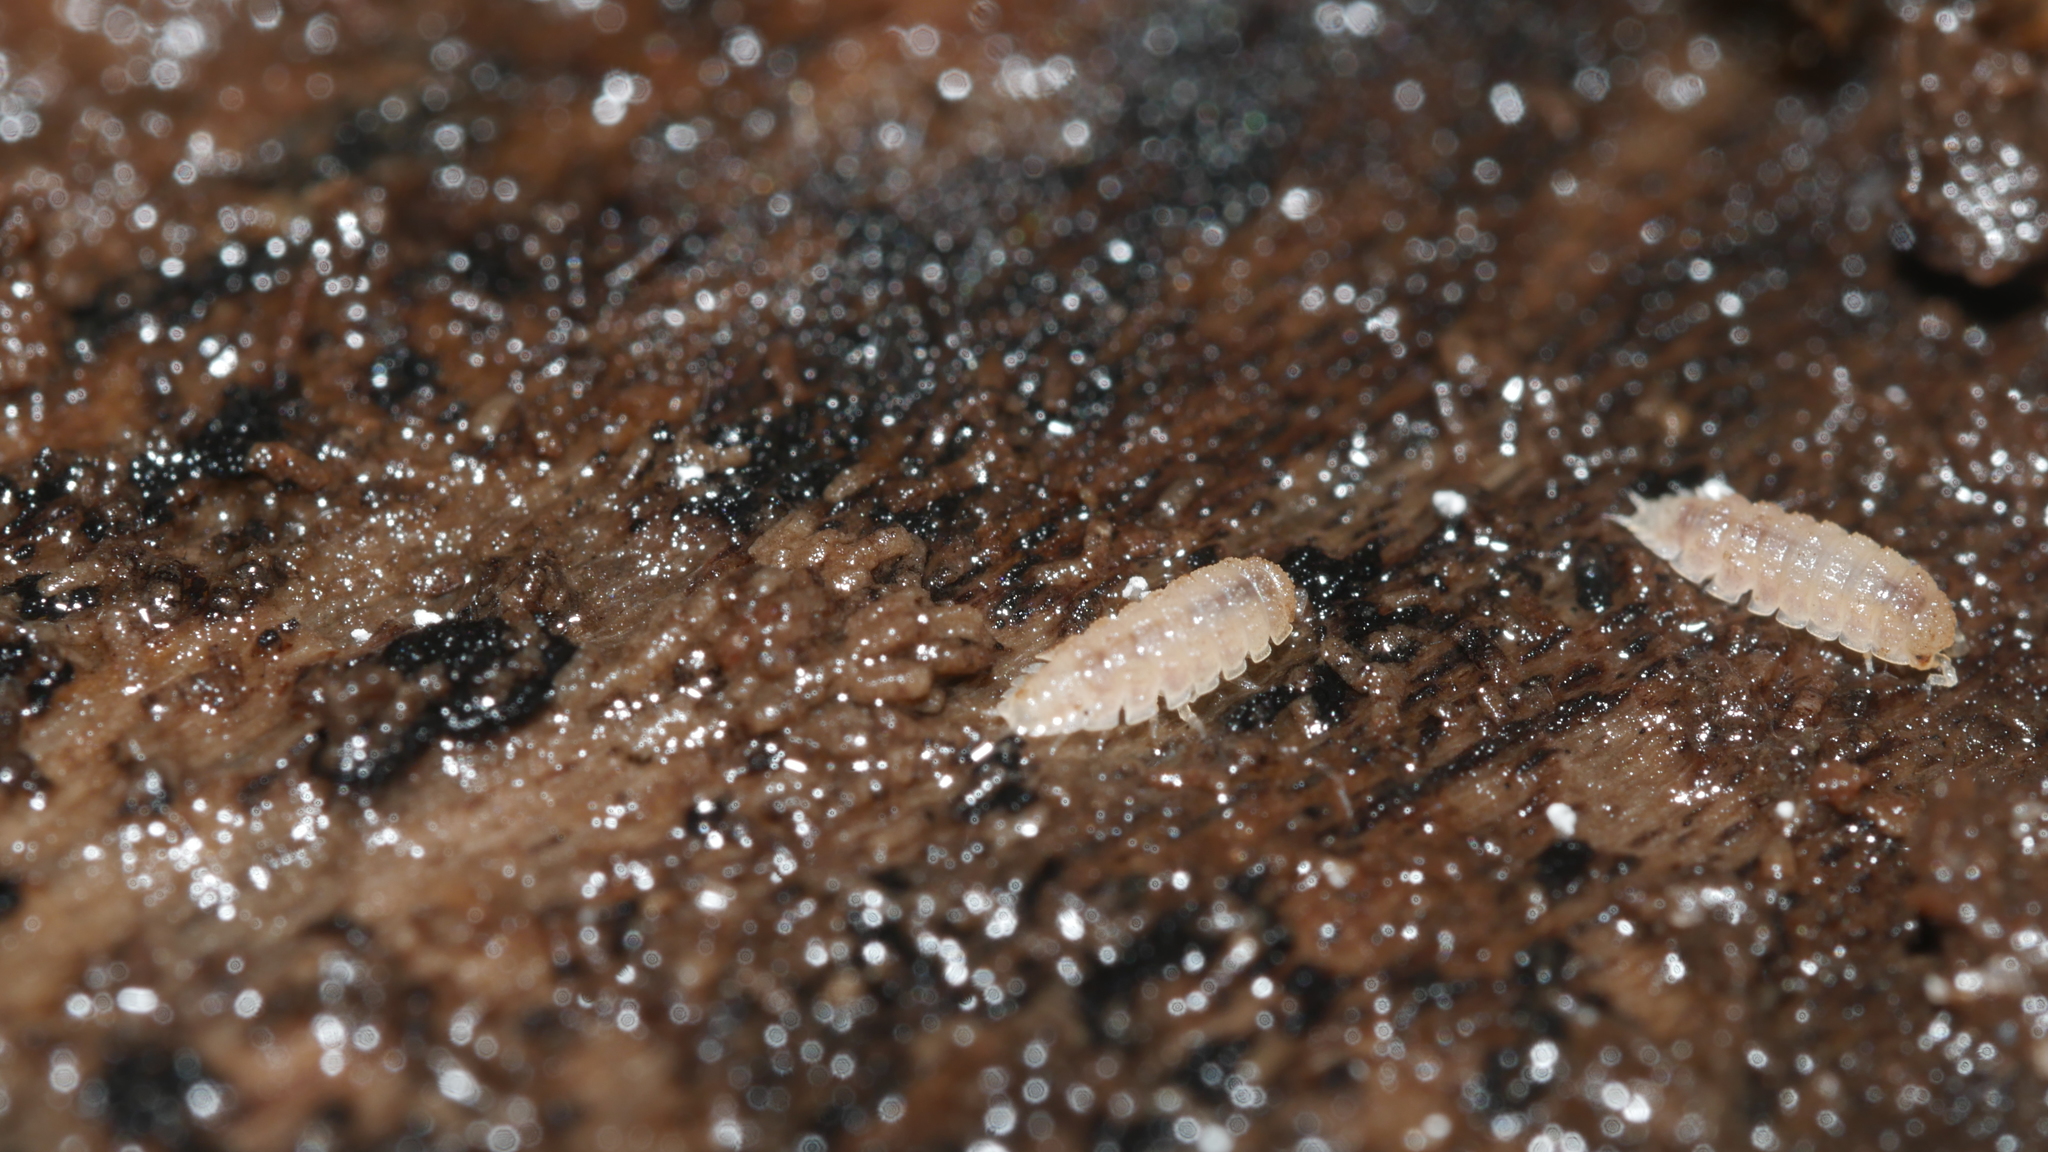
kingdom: Animalia
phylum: Arthropoda
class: Malacostraca
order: Isopoda
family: Trichoniscidae
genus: Haplophthalmus
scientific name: Haplophthalmus danicus
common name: Pillbug
